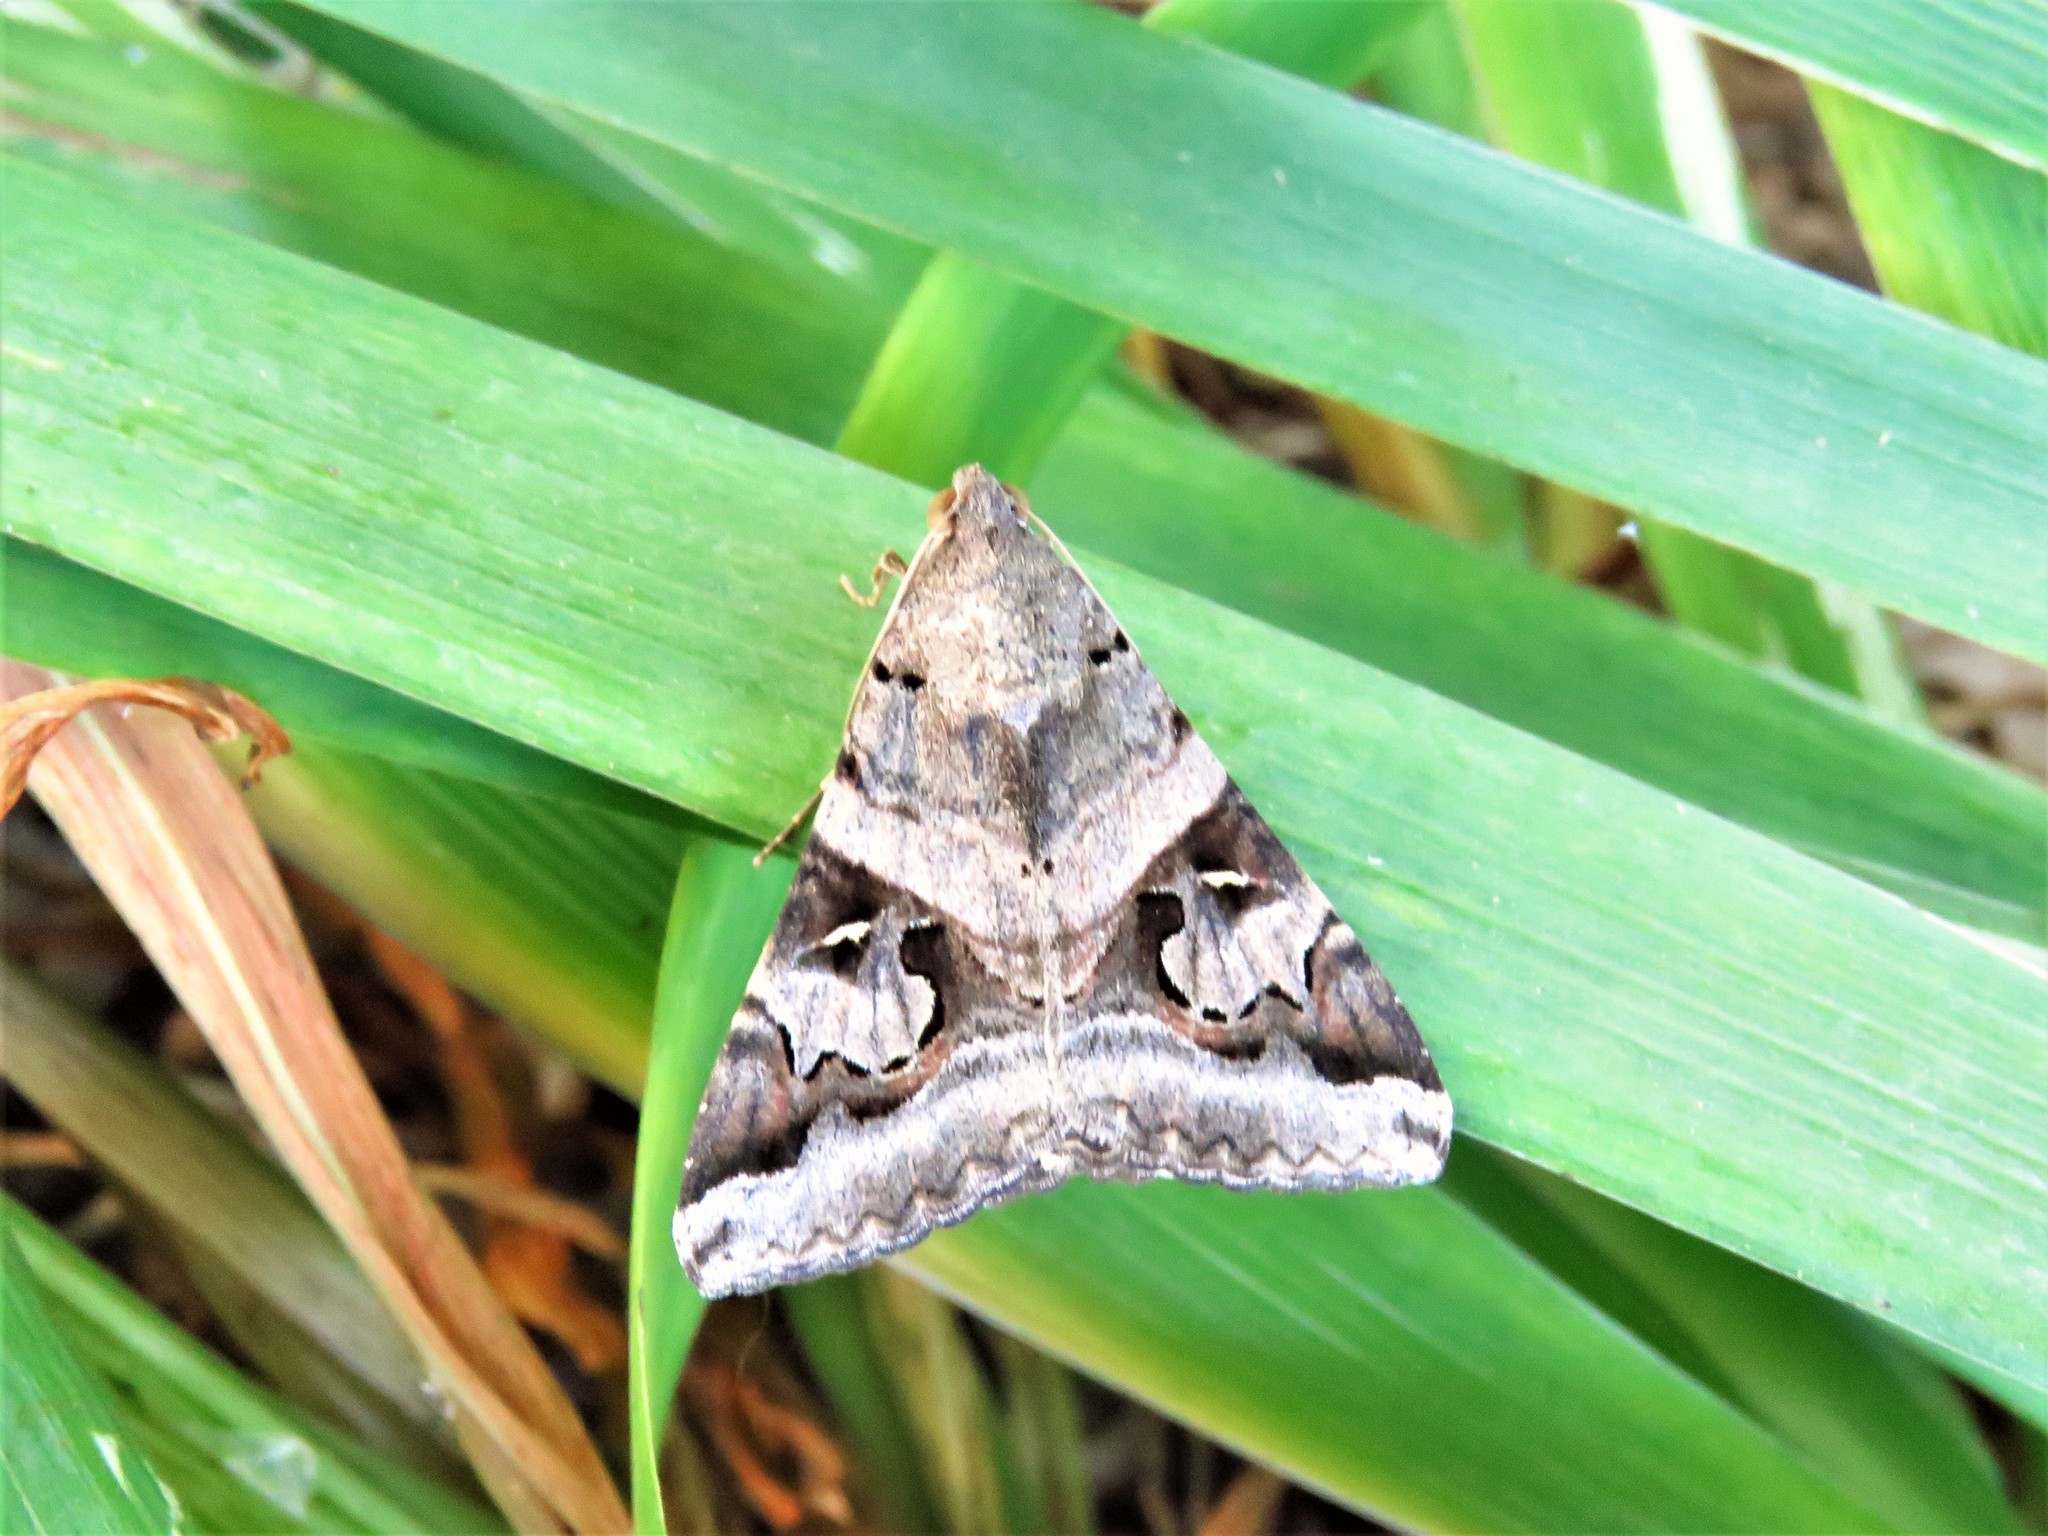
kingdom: Animalia
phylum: Arthropoda
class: Insecta
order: Lepidoptera
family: Erebidae
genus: Melipotis
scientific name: Melipotis indomita
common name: Moth
